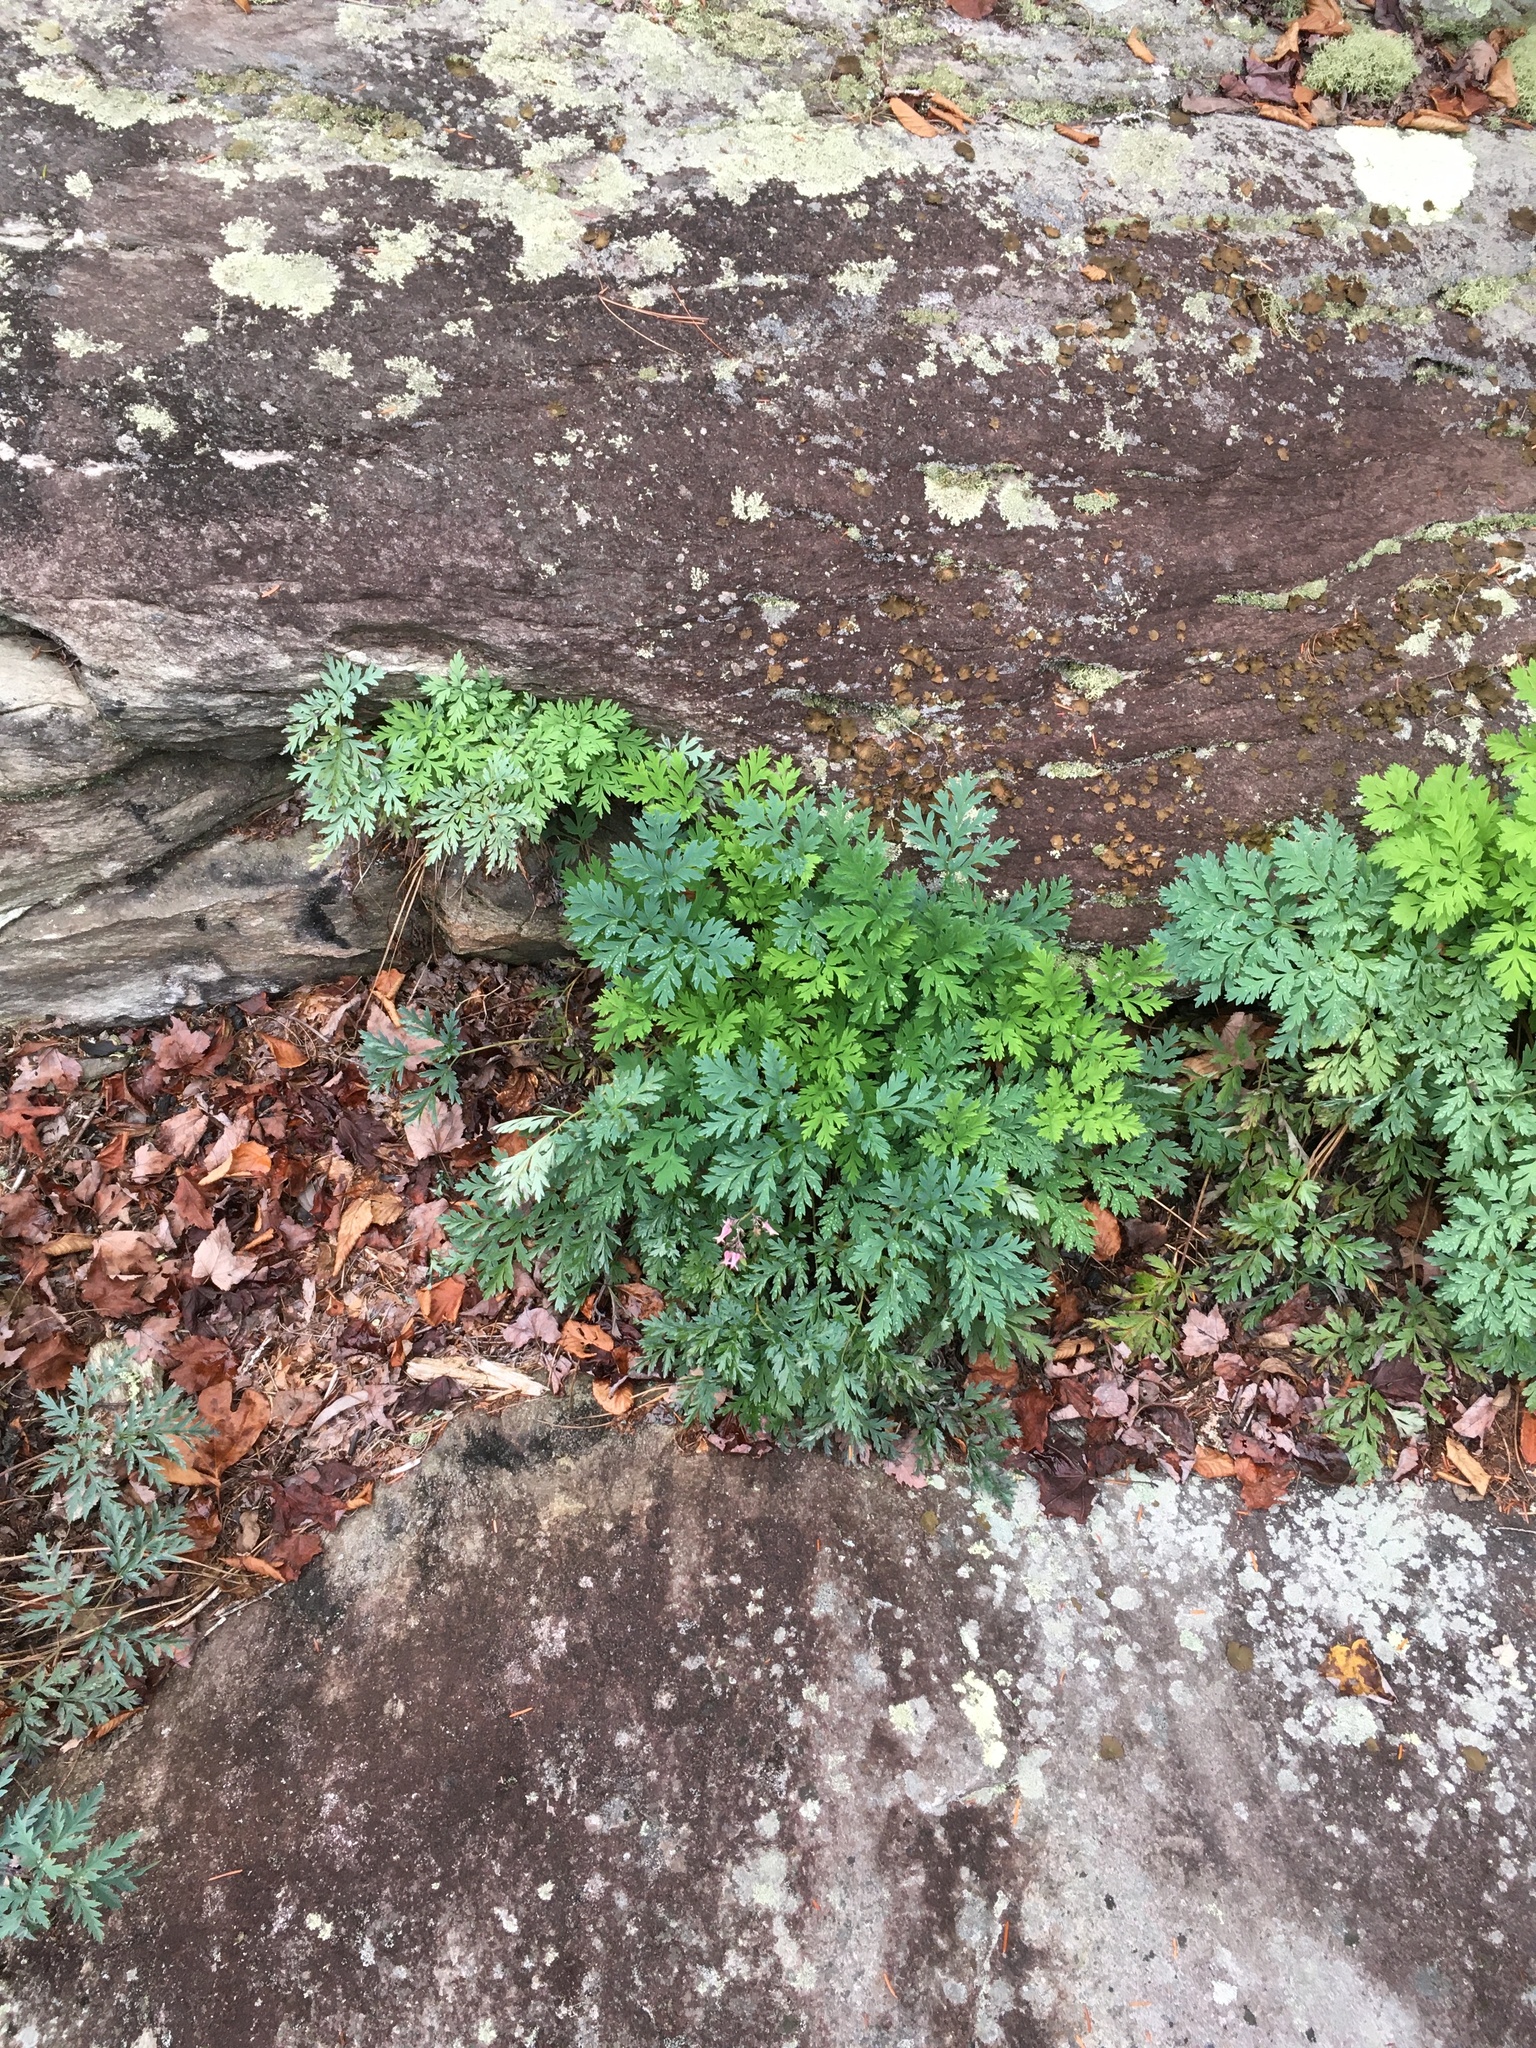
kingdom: Plantae
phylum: Tracheophyta
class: Magnoliopsida
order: Ranunculales
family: Papaveraceae
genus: Dicentra
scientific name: Dicentra eximia
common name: Turkey-corn
